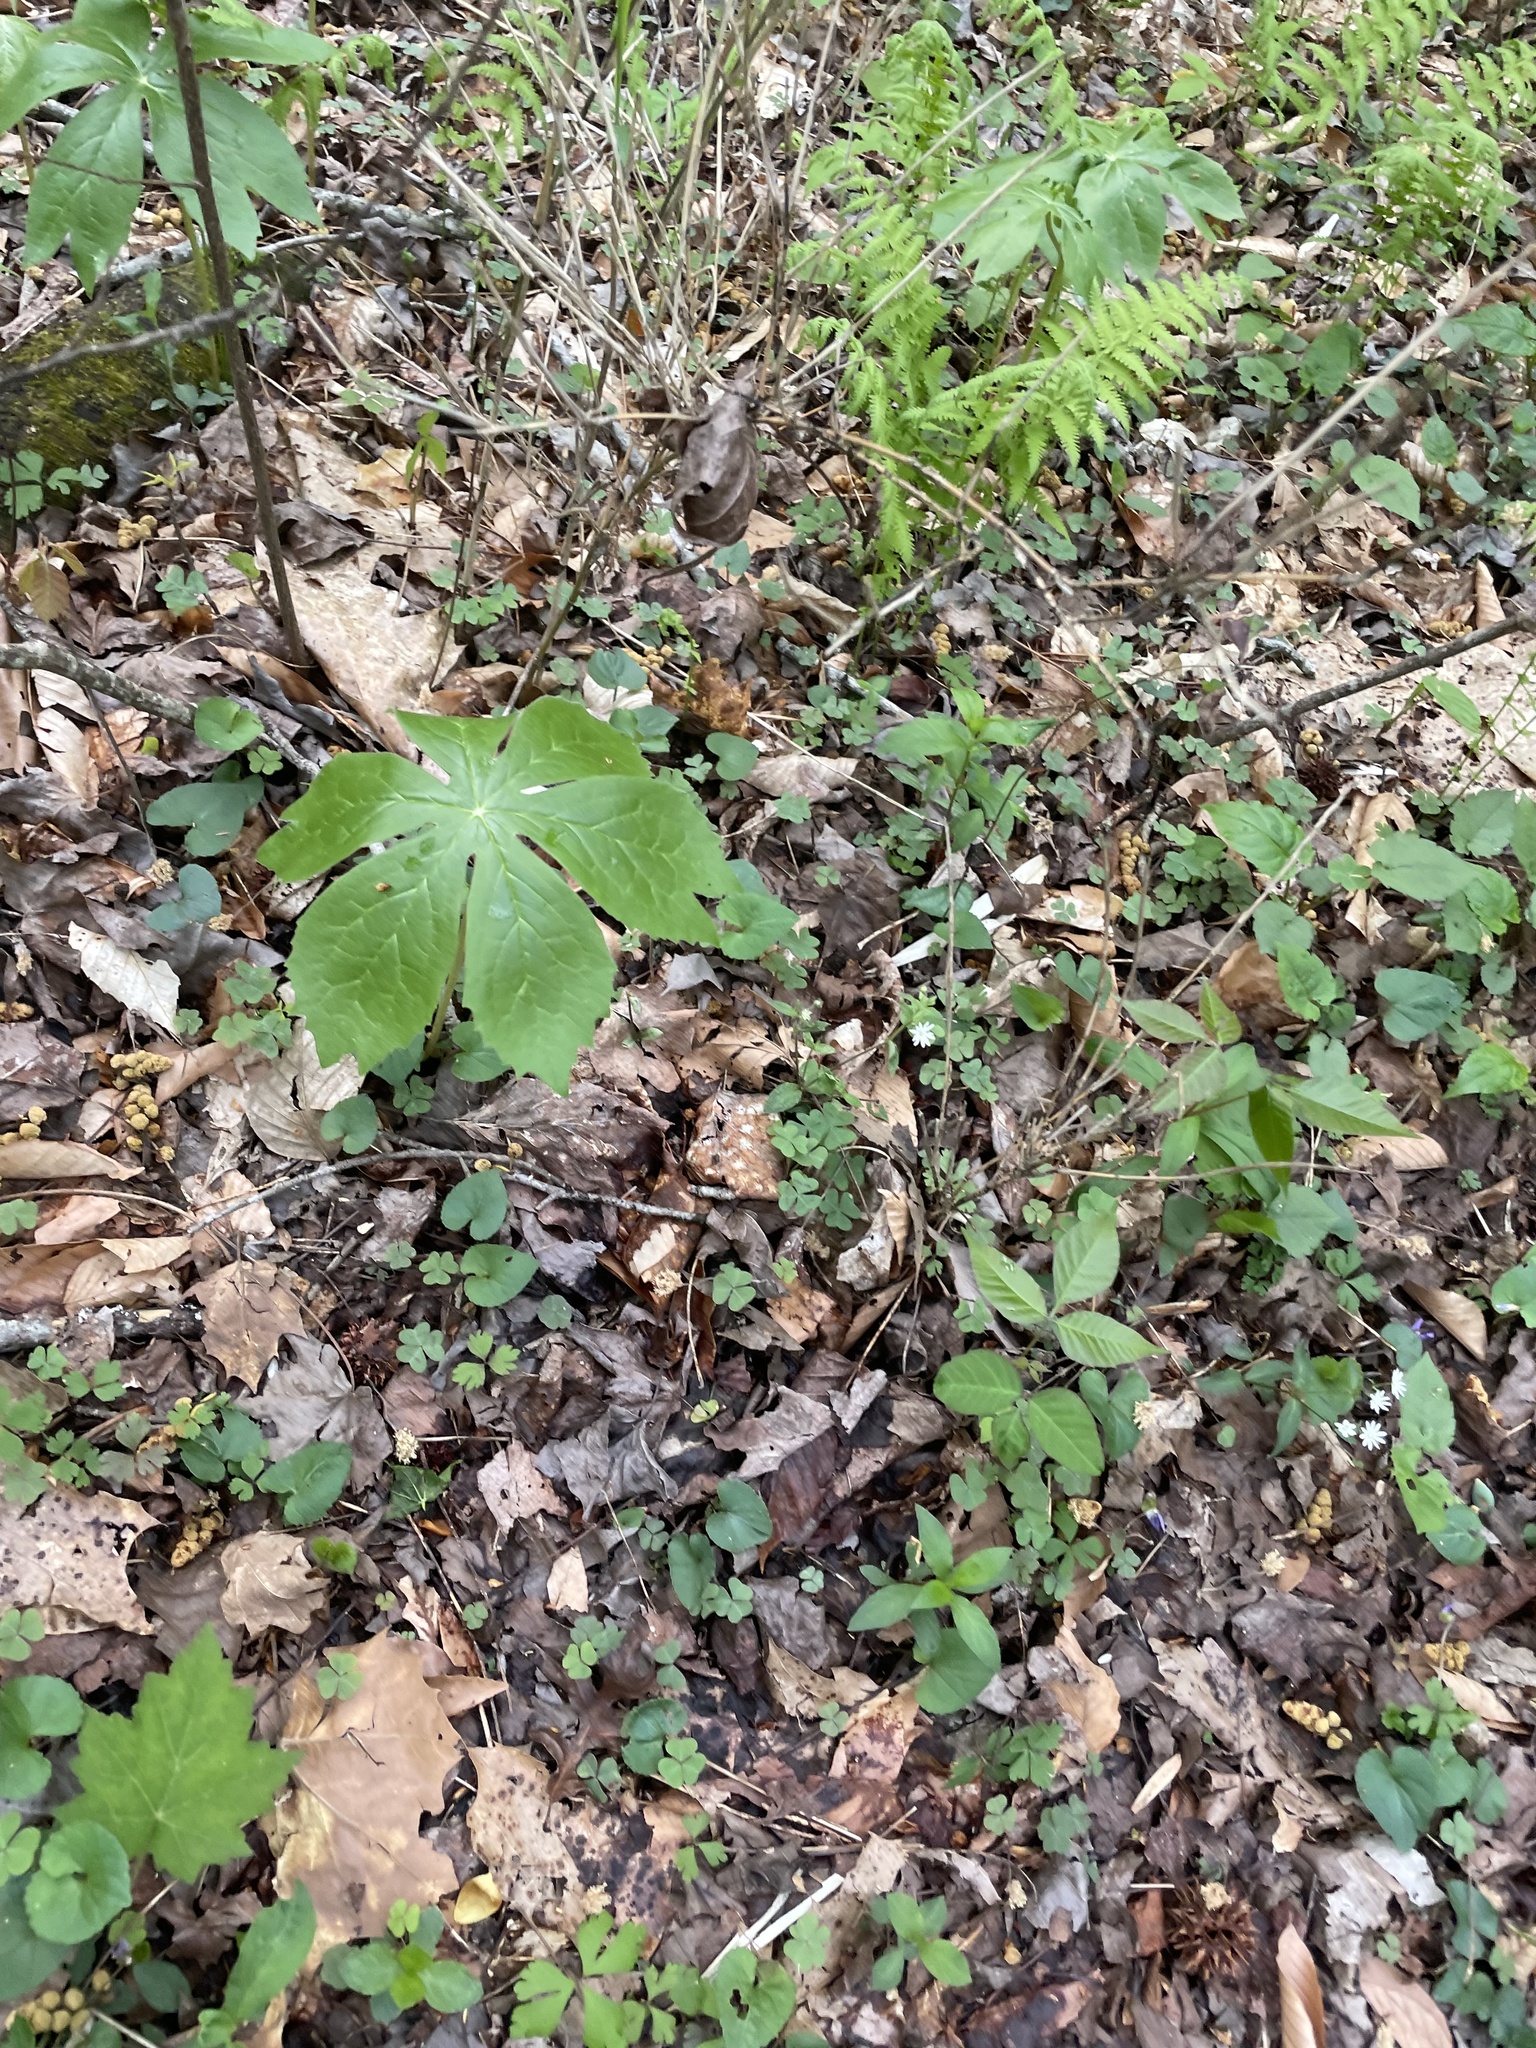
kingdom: Plantae
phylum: Tracheophyta
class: Magnoliopsida
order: Ranunculales
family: Berberidaceae
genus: Podophyllum
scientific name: Podophyllum peltatum
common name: Wild mandrake
